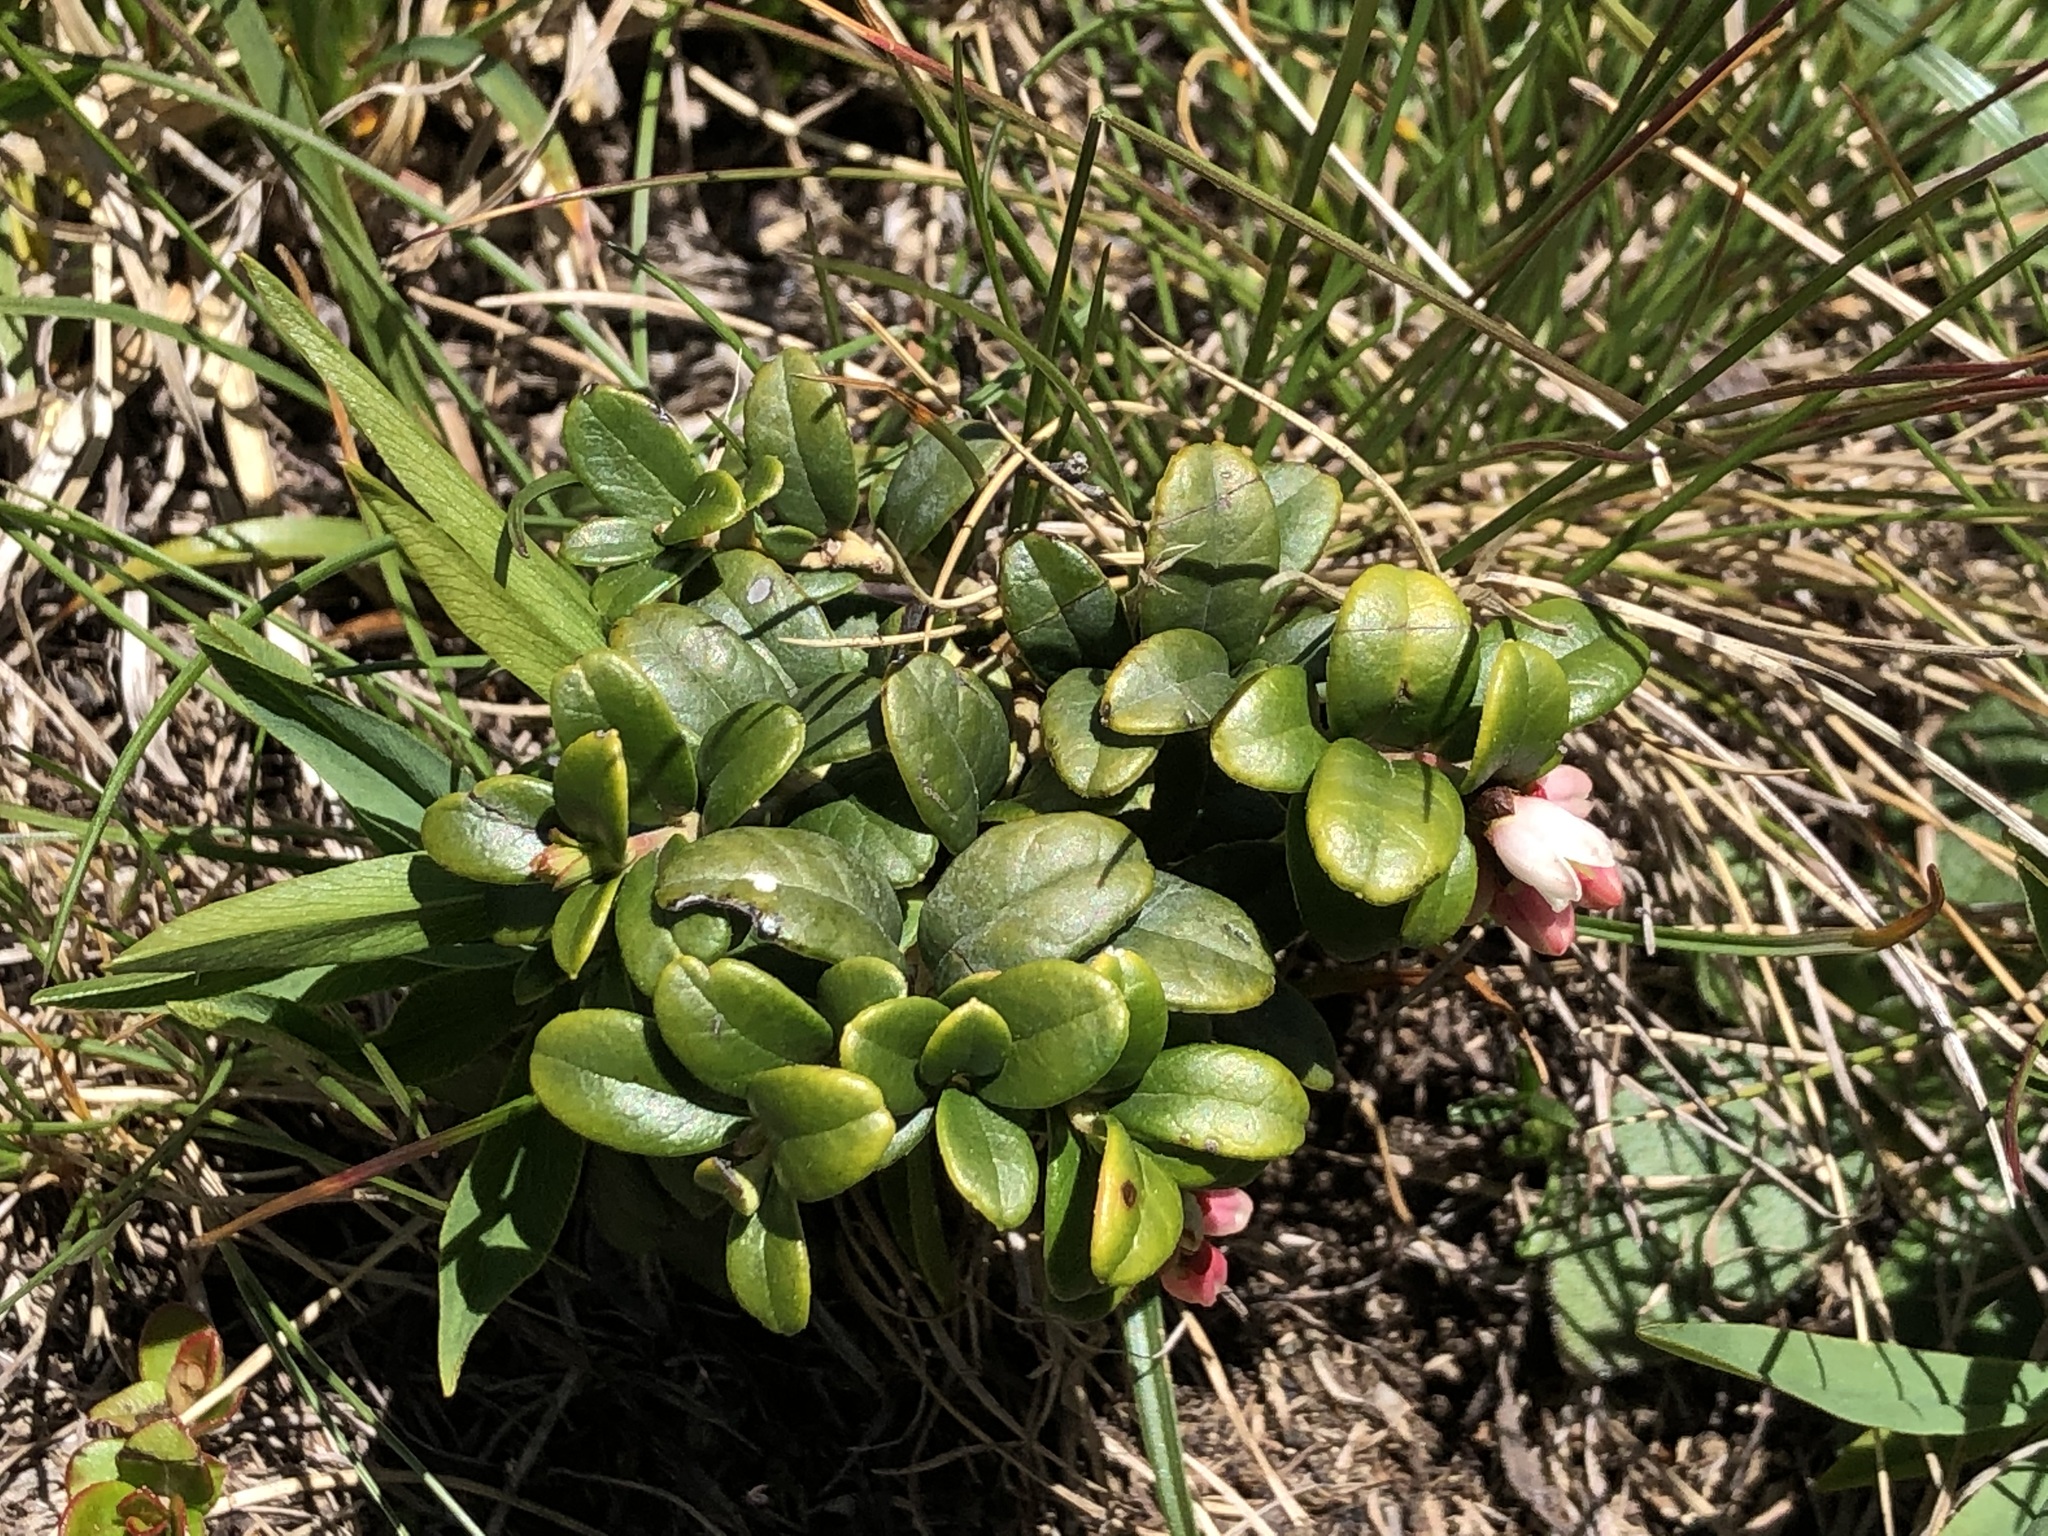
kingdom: Plantae
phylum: Tracheophyta
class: Magnoliopsida
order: Ericales
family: Ericaceae
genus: Vaccinium
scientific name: Vaccinium vitis-idaea
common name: Cowberry
